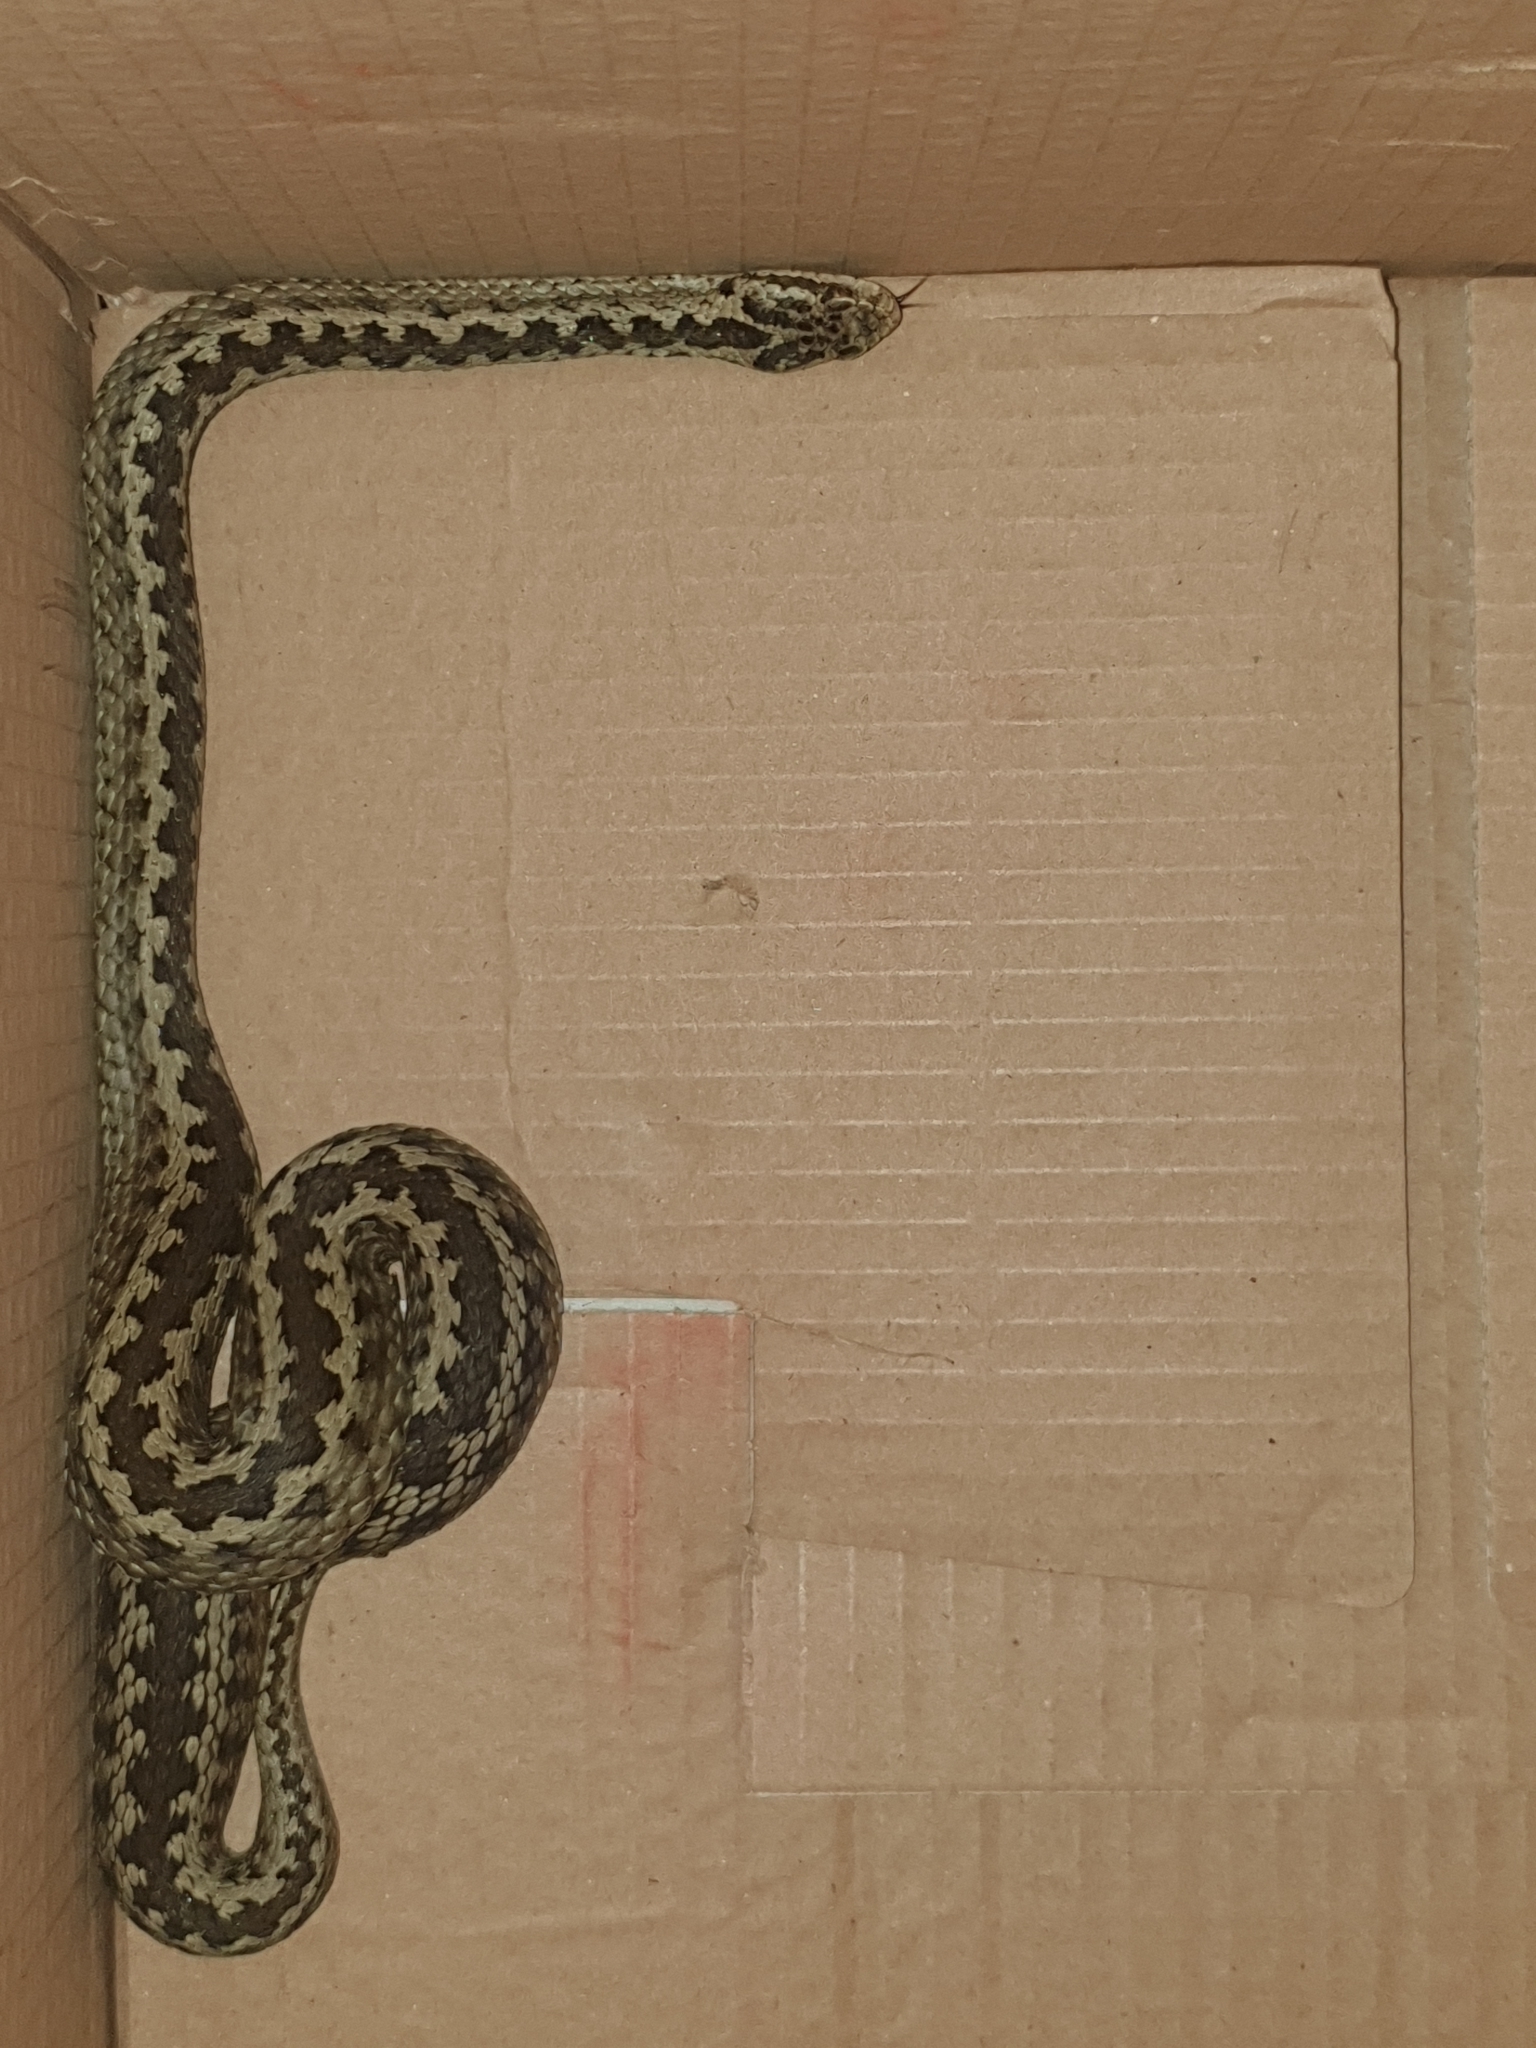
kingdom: Animalia
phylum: Chordata
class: Squamata
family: Viperidae
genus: Vipera
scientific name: Vipera lotievi
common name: Lotiev's viper
